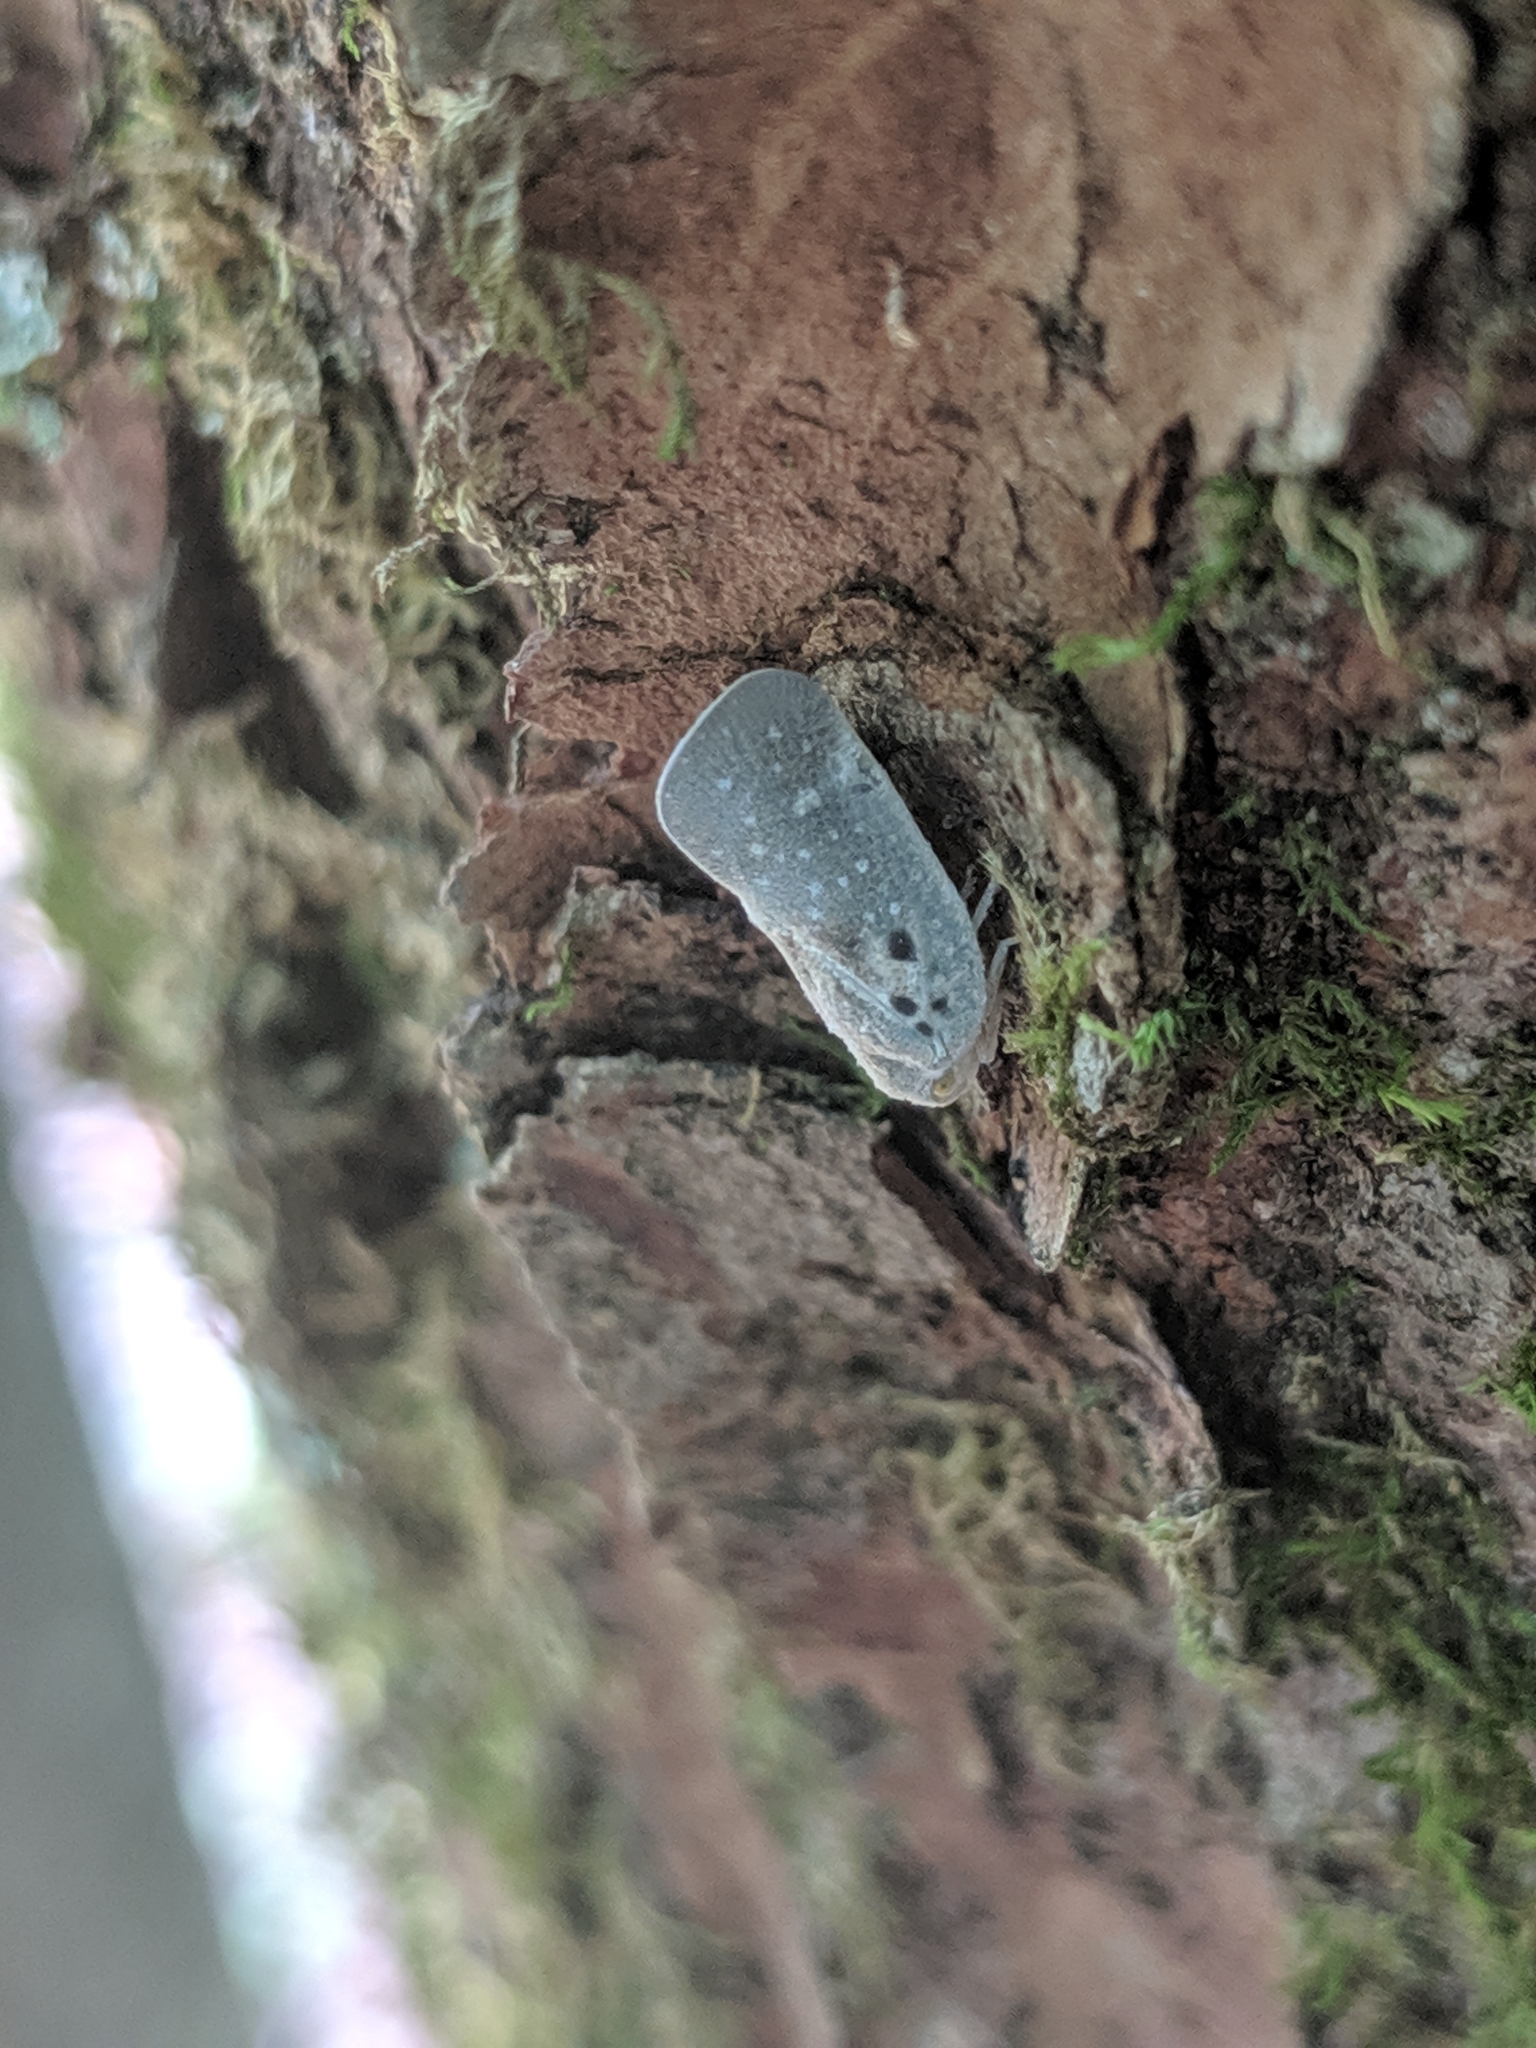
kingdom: Animalia
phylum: Arthropoda
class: Insecta
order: Hemiptera
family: Flatidae
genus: Metcalfa
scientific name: Metcalfa pruinosa
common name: Citrus flatid planthopper
